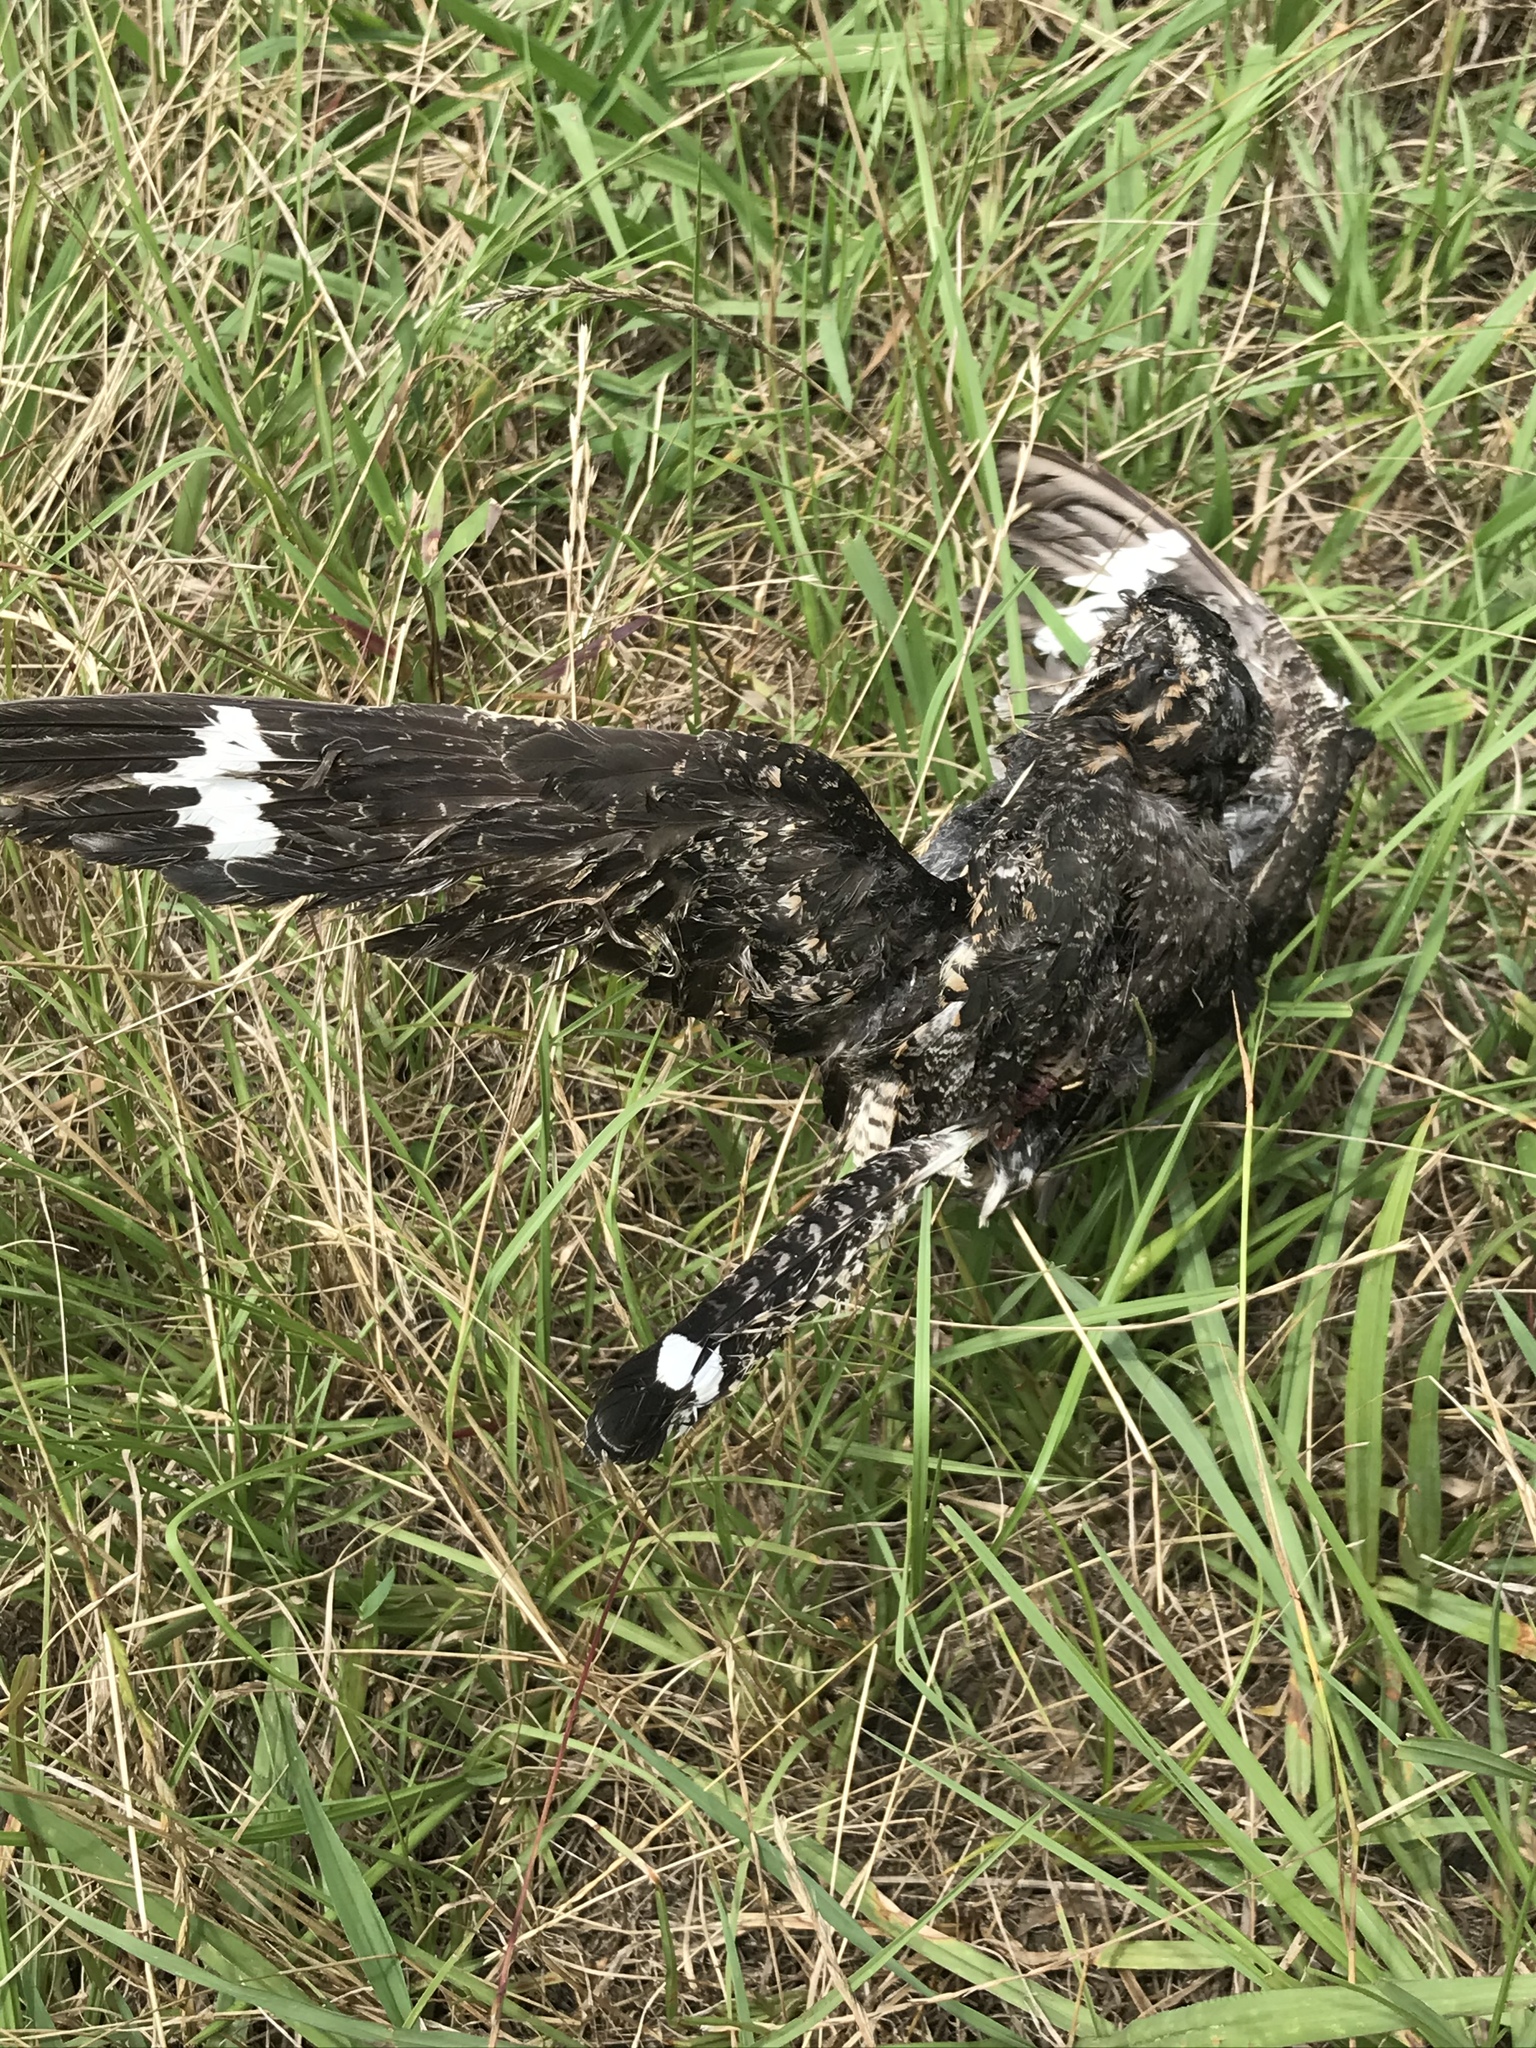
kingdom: Animalia
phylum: Chordata
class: Aves
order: Caprimulgiformes
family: Caprimulgidae
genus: Chordeiles
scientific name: Chordeiles minor
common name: Common nighthawk
